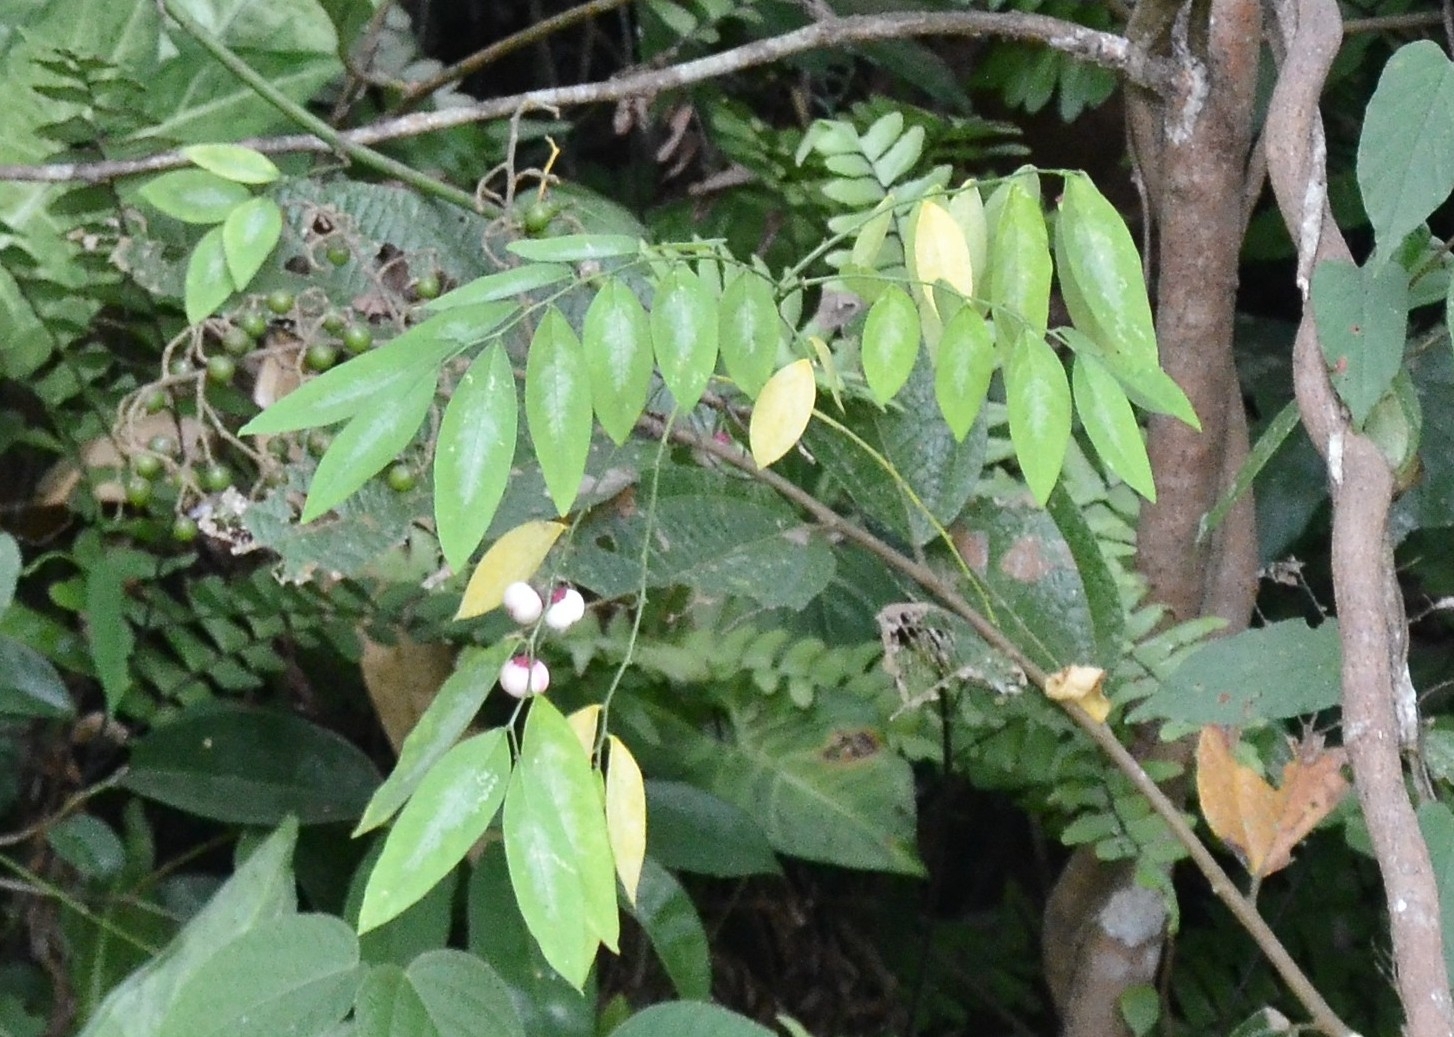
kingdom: Plantae
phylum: Tracheophyta
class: Magnoliopsida
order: Malpighiales
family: Phyllanthaceae
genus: Breynia
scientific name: Breynia androgyna
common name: Star gooseberry
